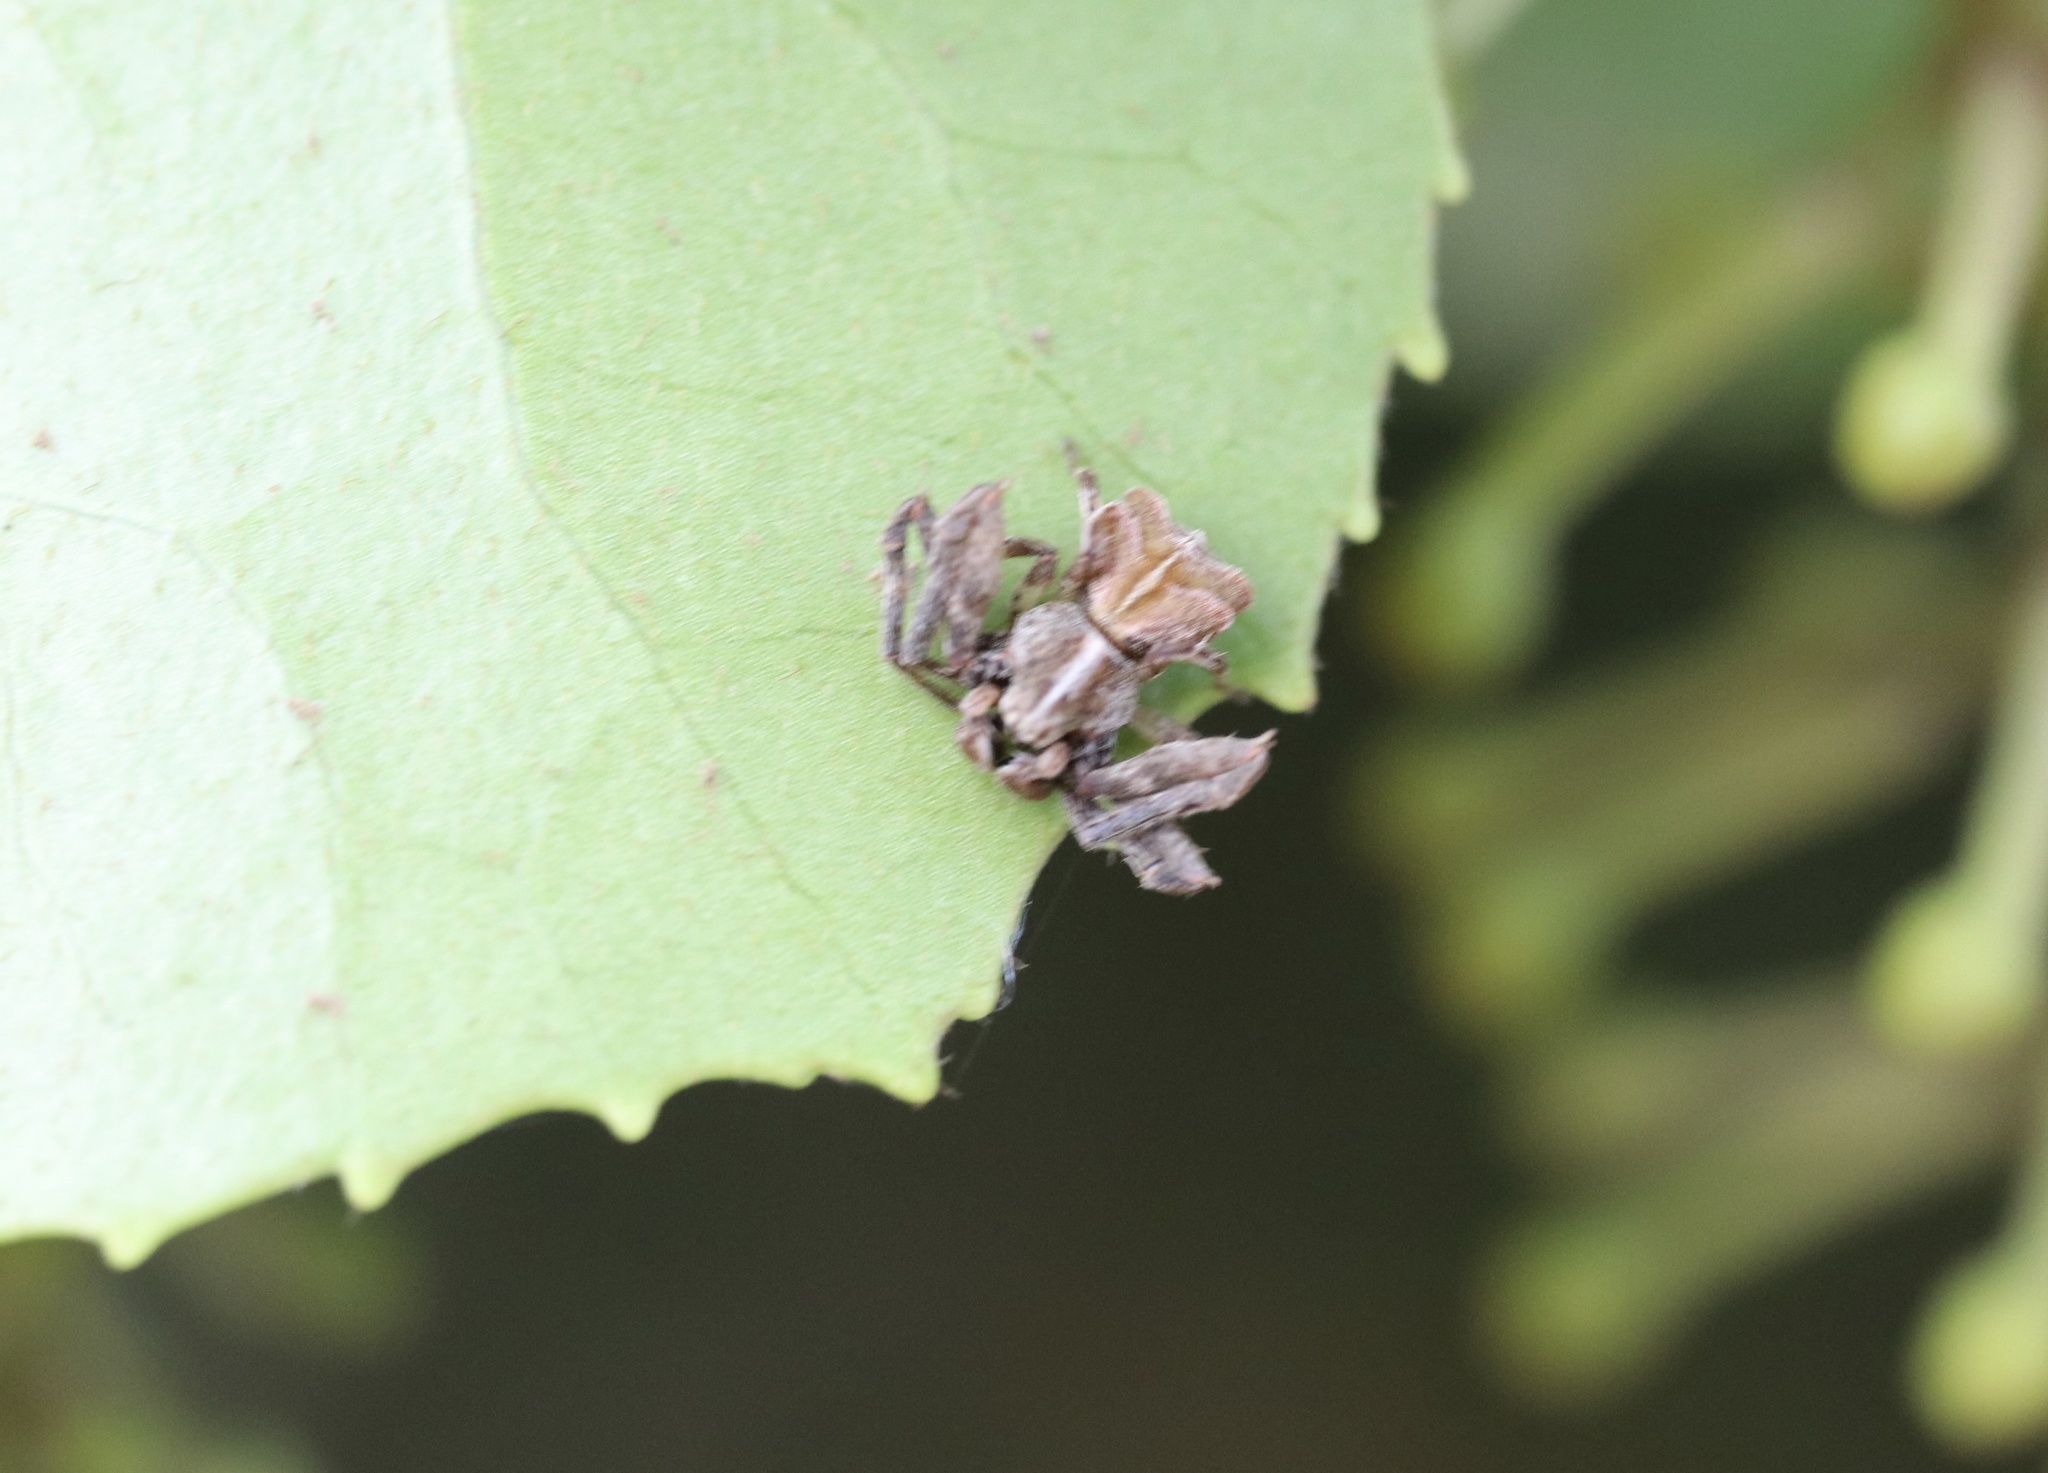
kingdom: Animalia
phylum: Arthropoda
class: Arachnida
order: Araneae
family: Thomisidae
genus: Coenypha
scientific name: Coenypha ditissima
